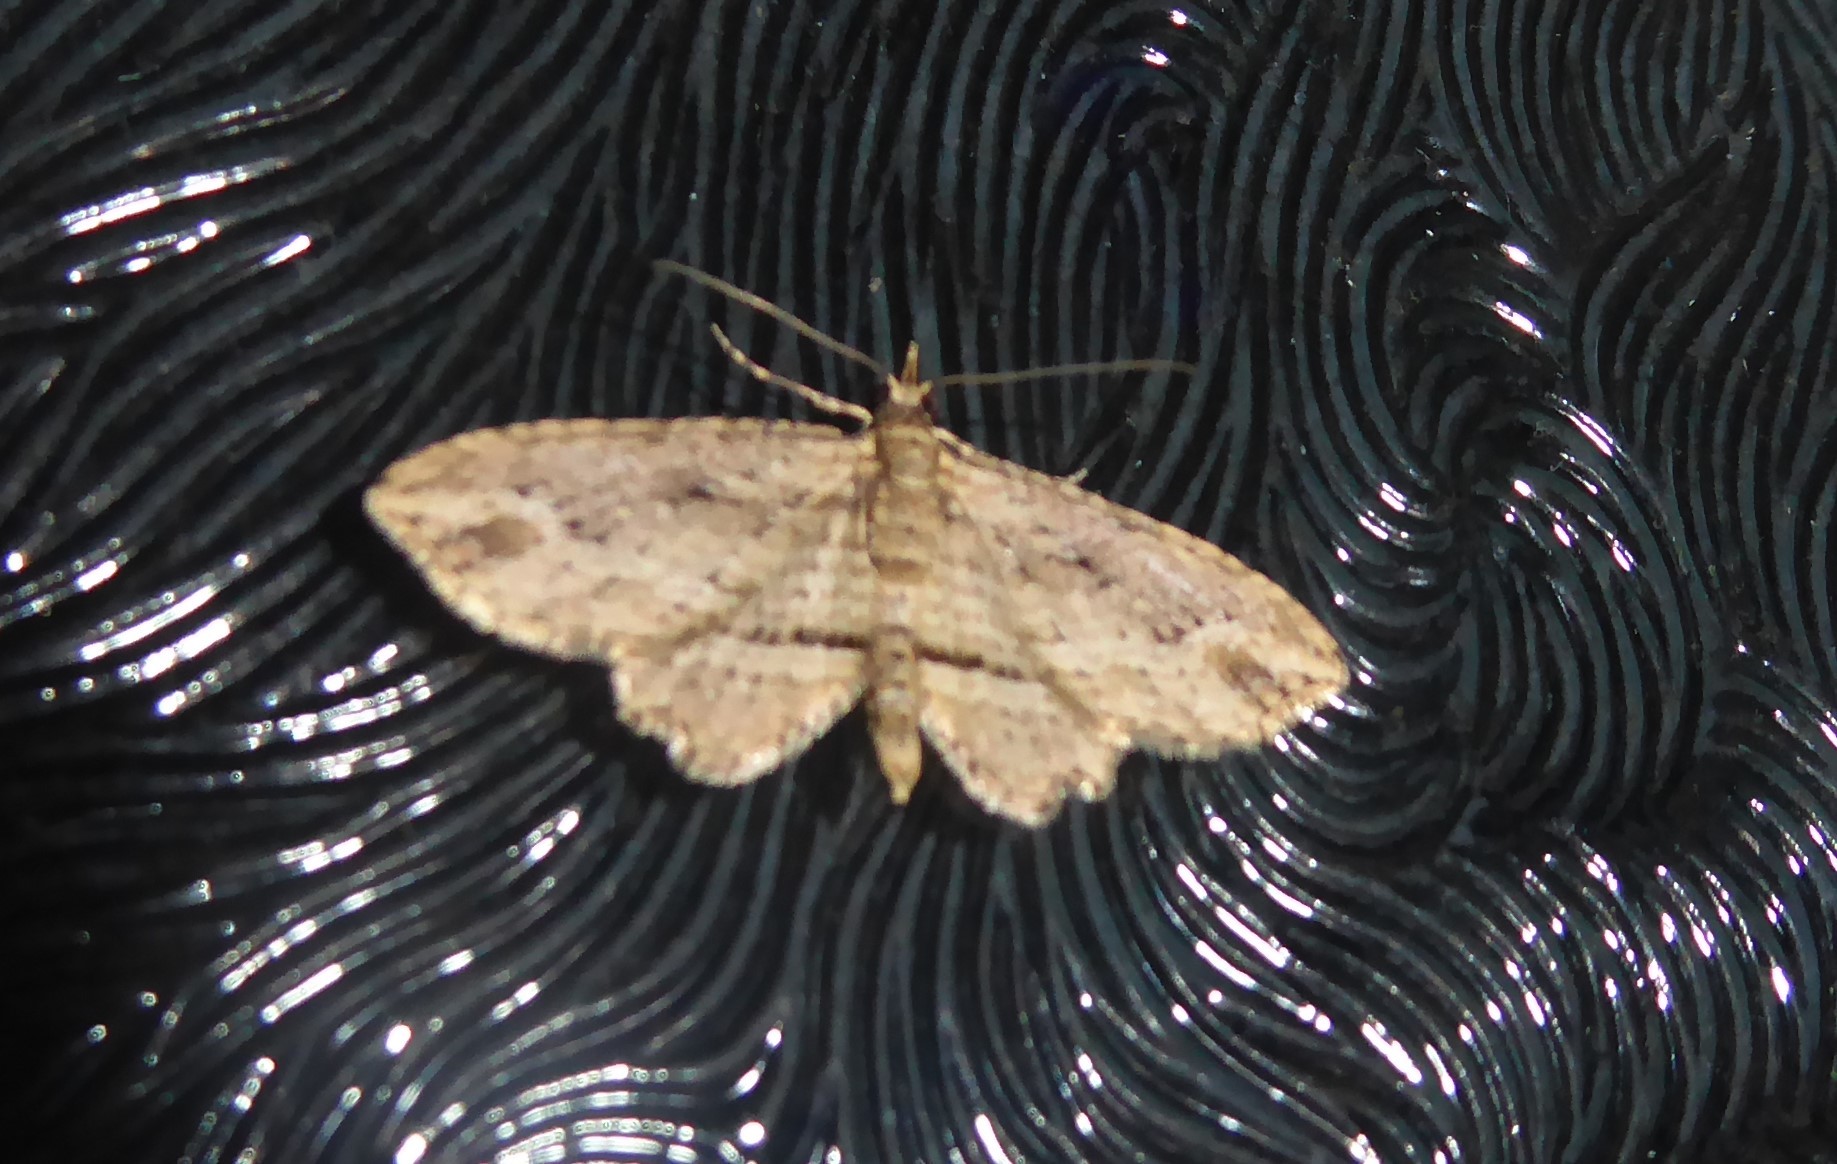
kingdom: Animalia
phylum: Arthropoda
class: Insecta
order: Lepidoptera
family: Geometridae
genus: Chloroclystis
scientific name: Chloroclystis filata
